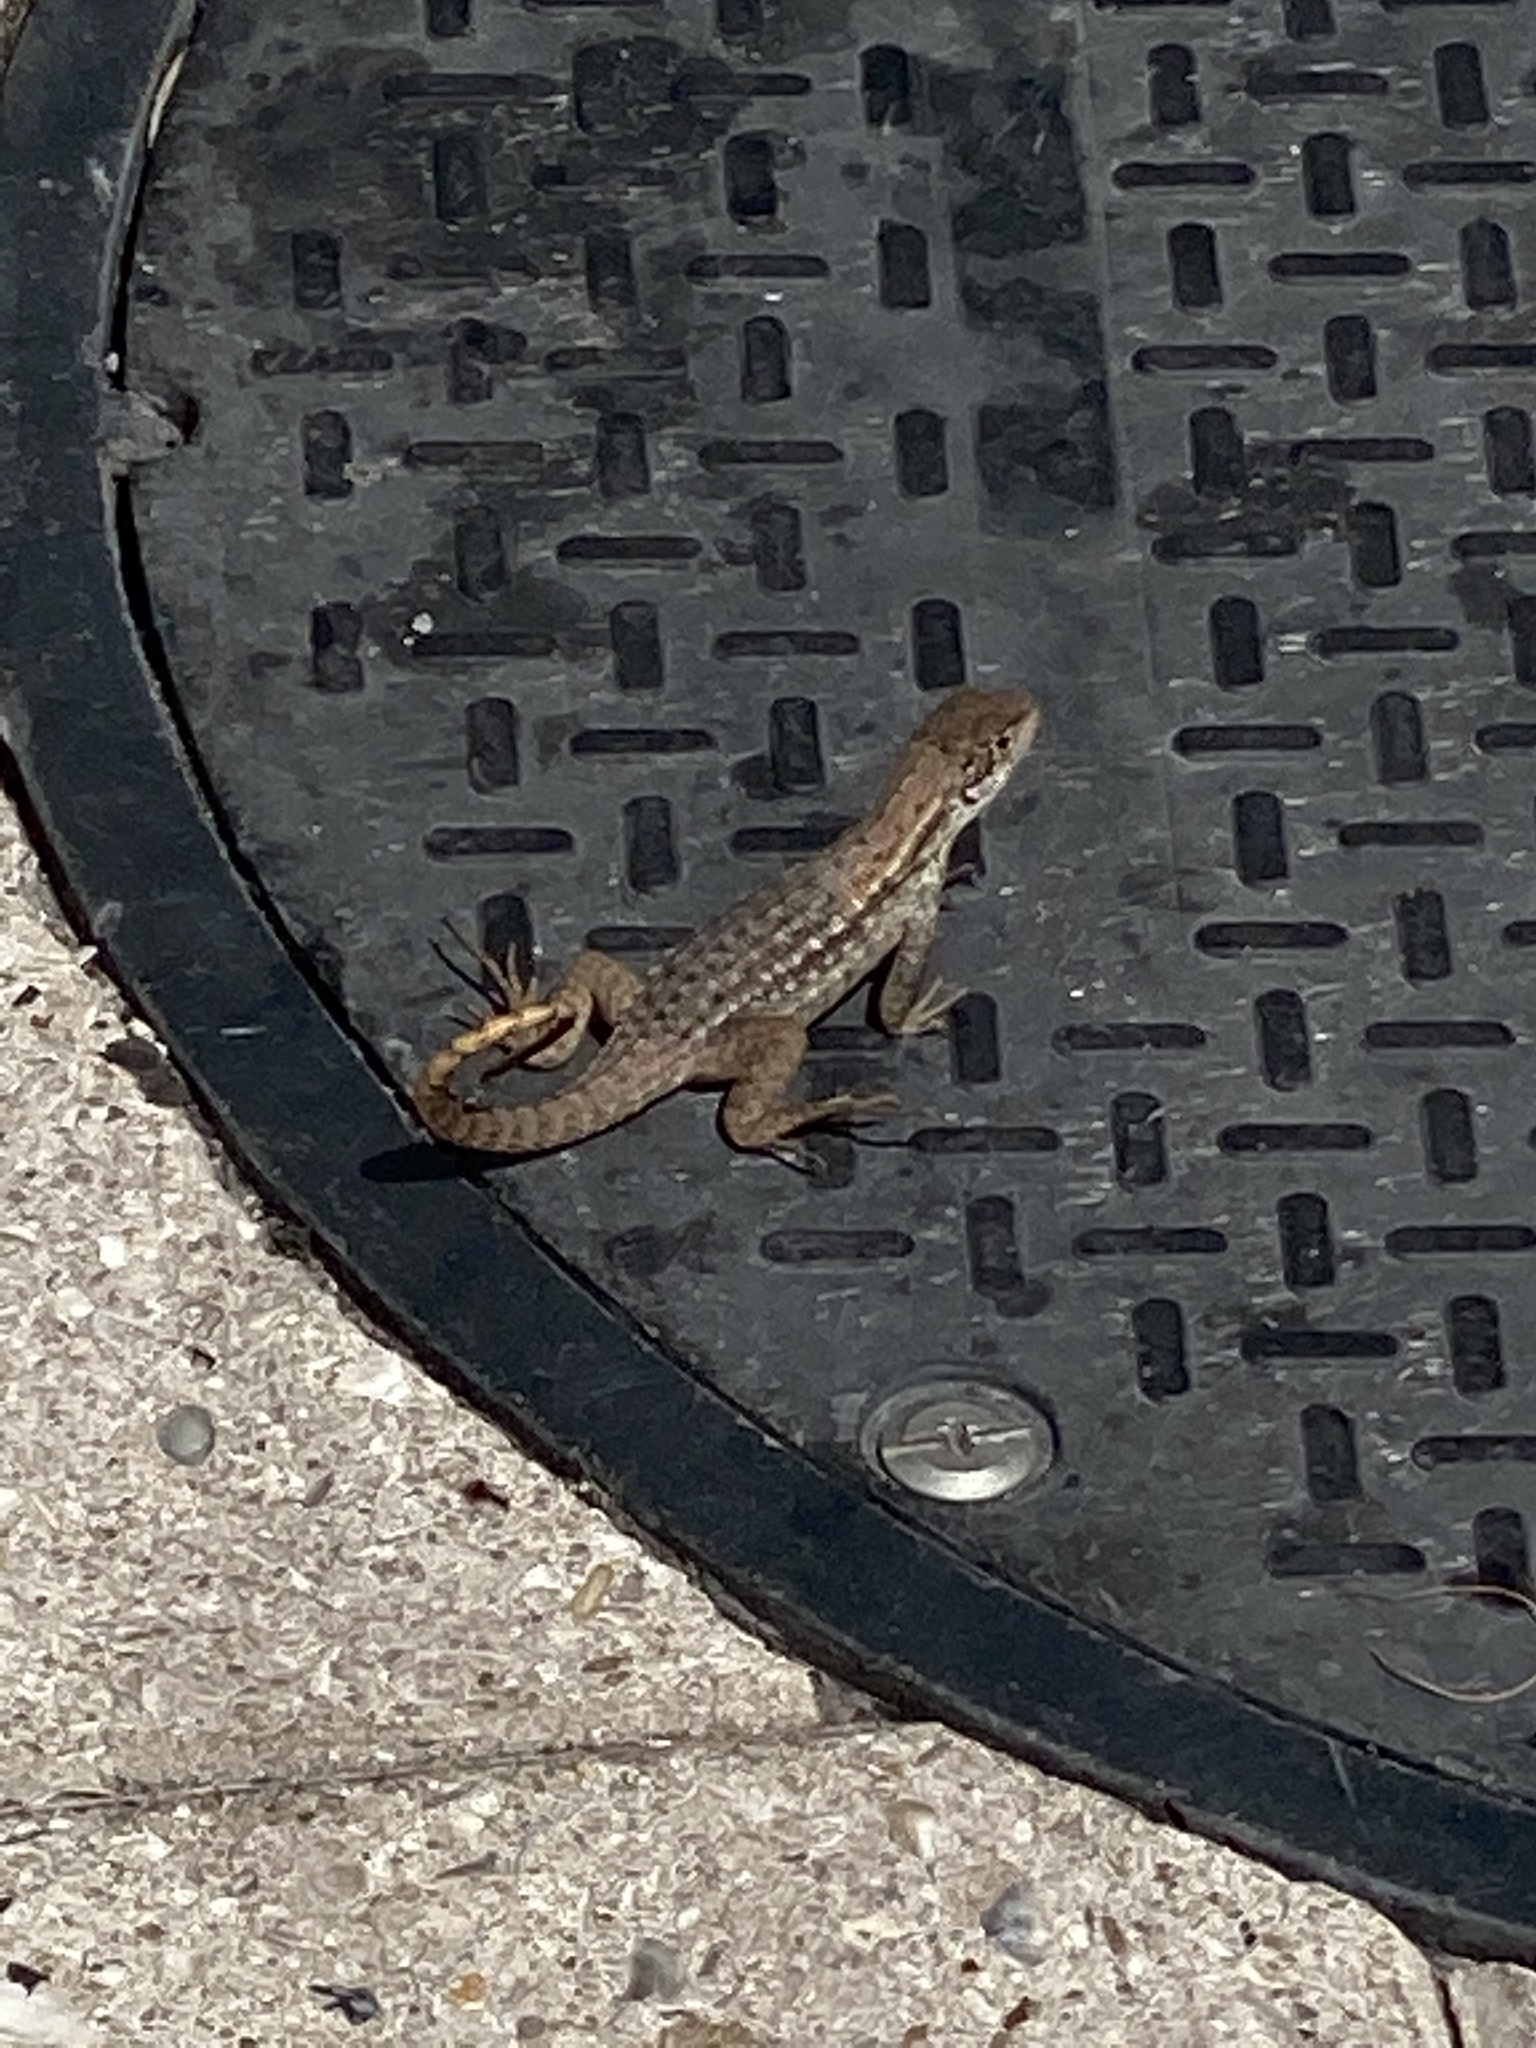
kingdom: Animalia
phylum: Chordata
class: Squamata
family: Leiocephalidae
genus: Leiocephalus
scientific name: Leiocephalus carinatus
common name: Northern curly-tailed lizard
